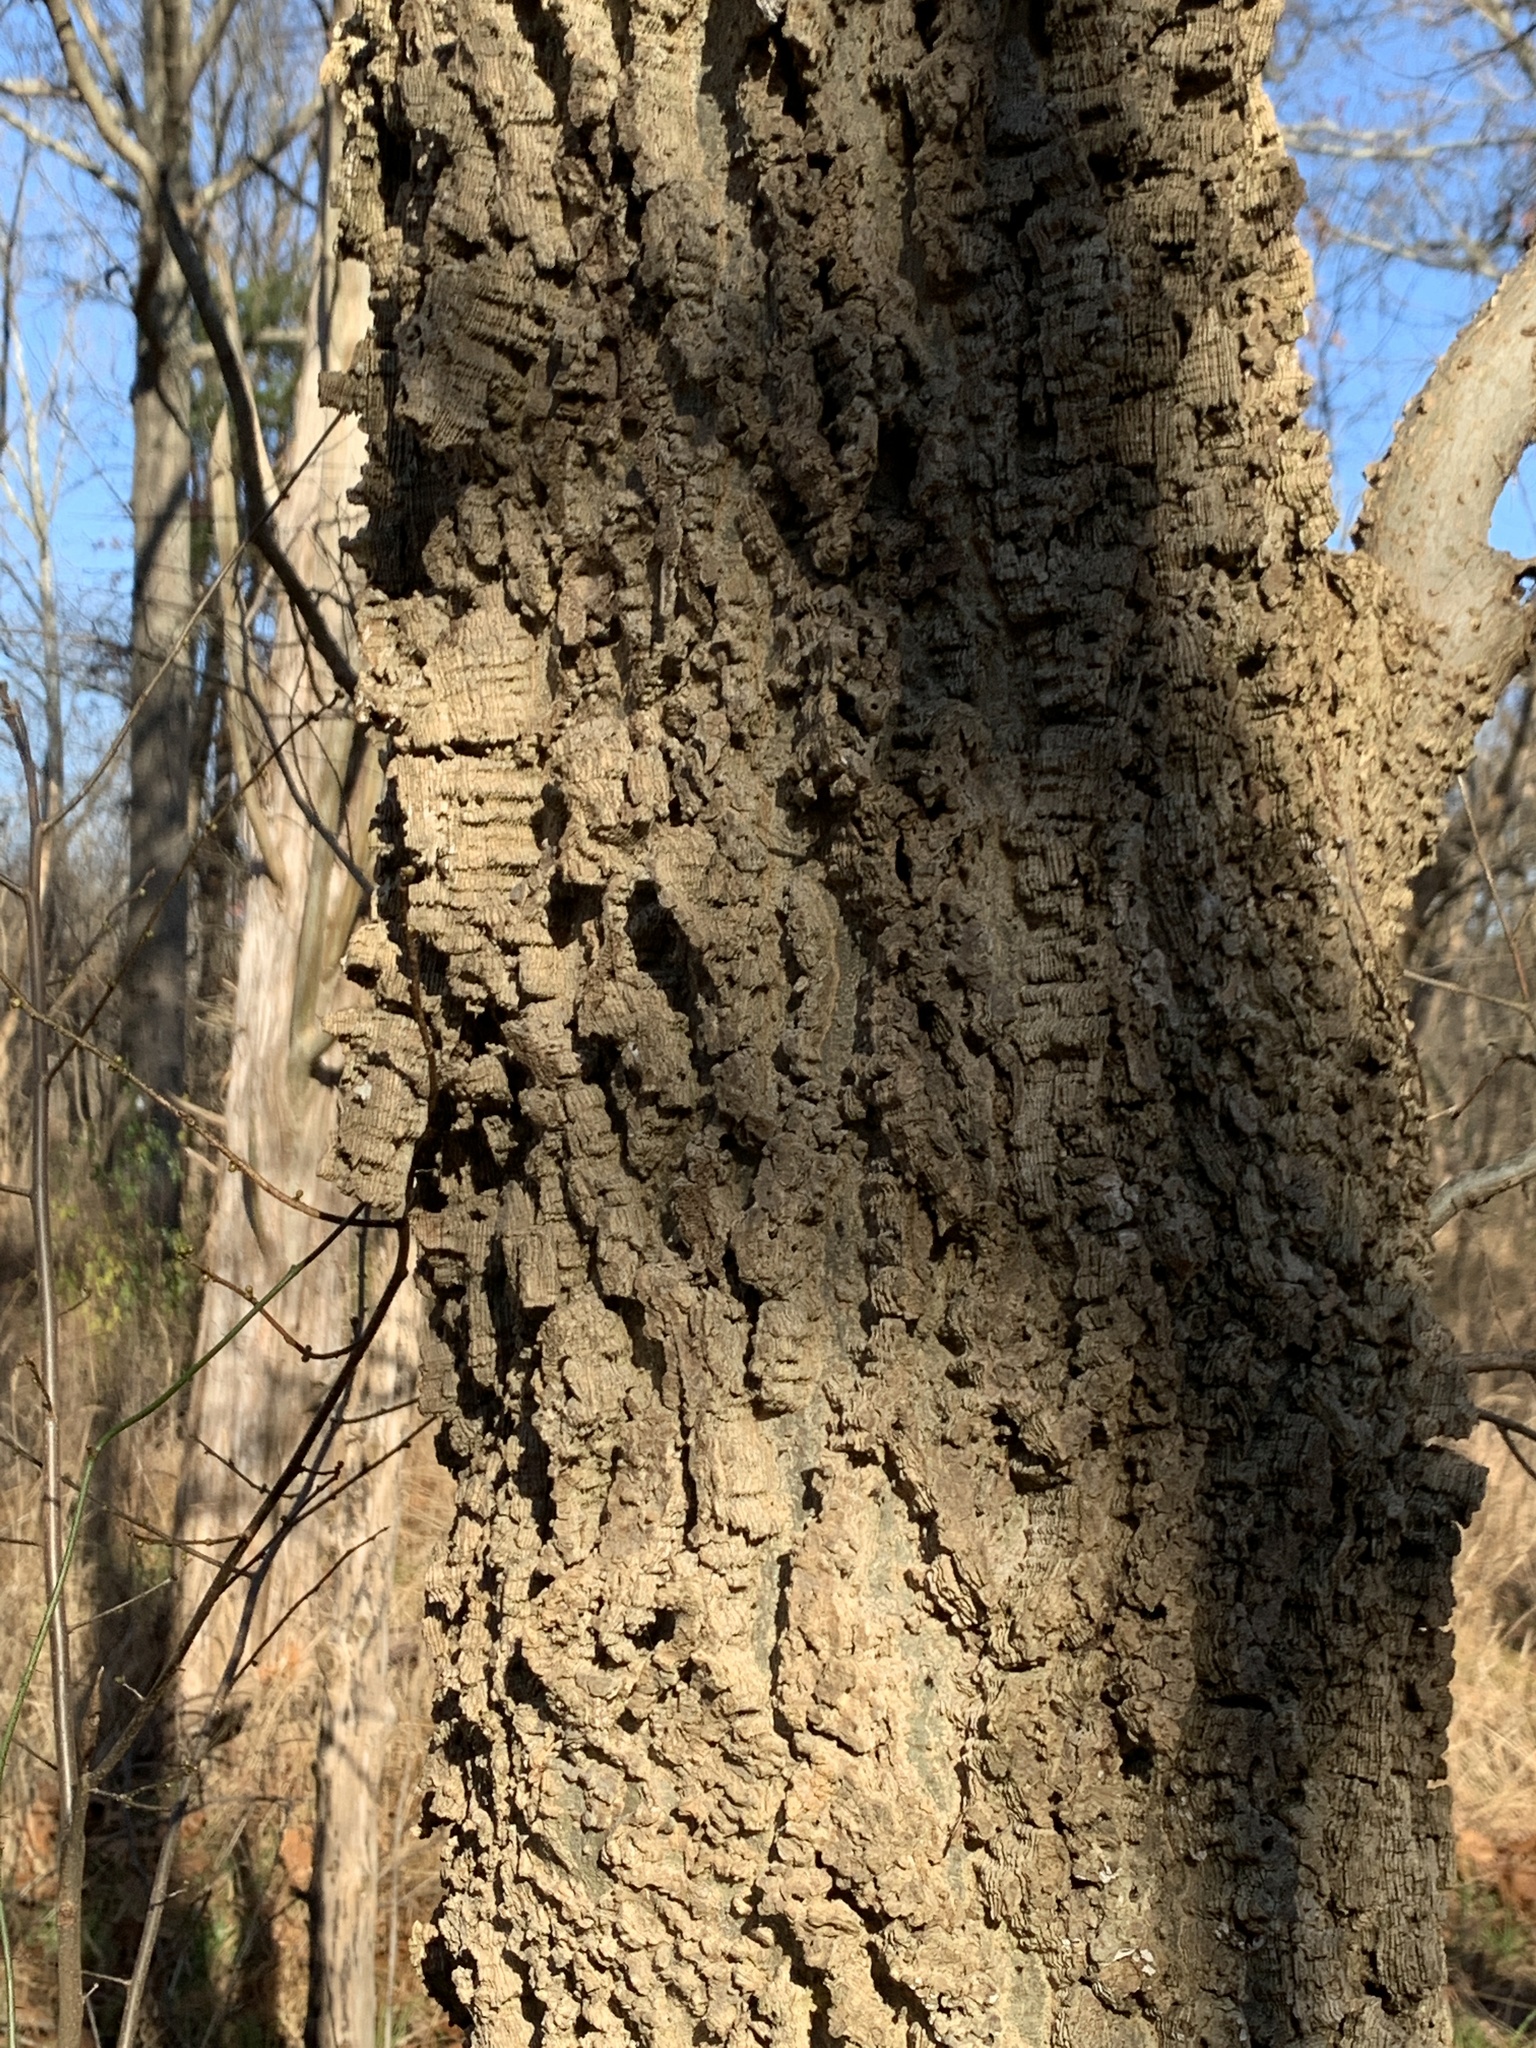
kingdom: Plantae
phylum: Tracheophyta
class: Magnoliopsida
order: Rosales
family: Cannabaceae
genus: Celtis
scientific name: Celtis occidentalis
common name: Common hackberry
